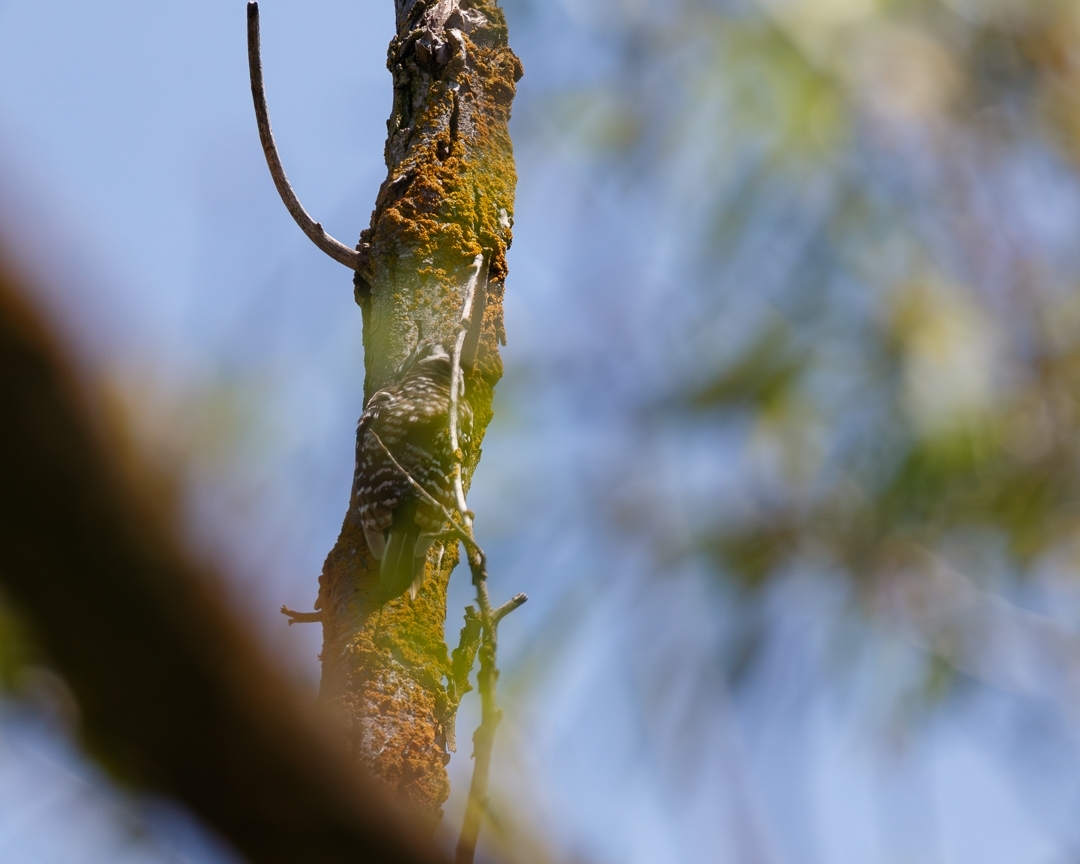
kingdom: Animalia
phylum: Chordata
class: Aves
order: Piciformes
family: Picidae
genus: Dryobates
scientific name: Dryobates nuttallii
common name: Nuttall's woodpecker
